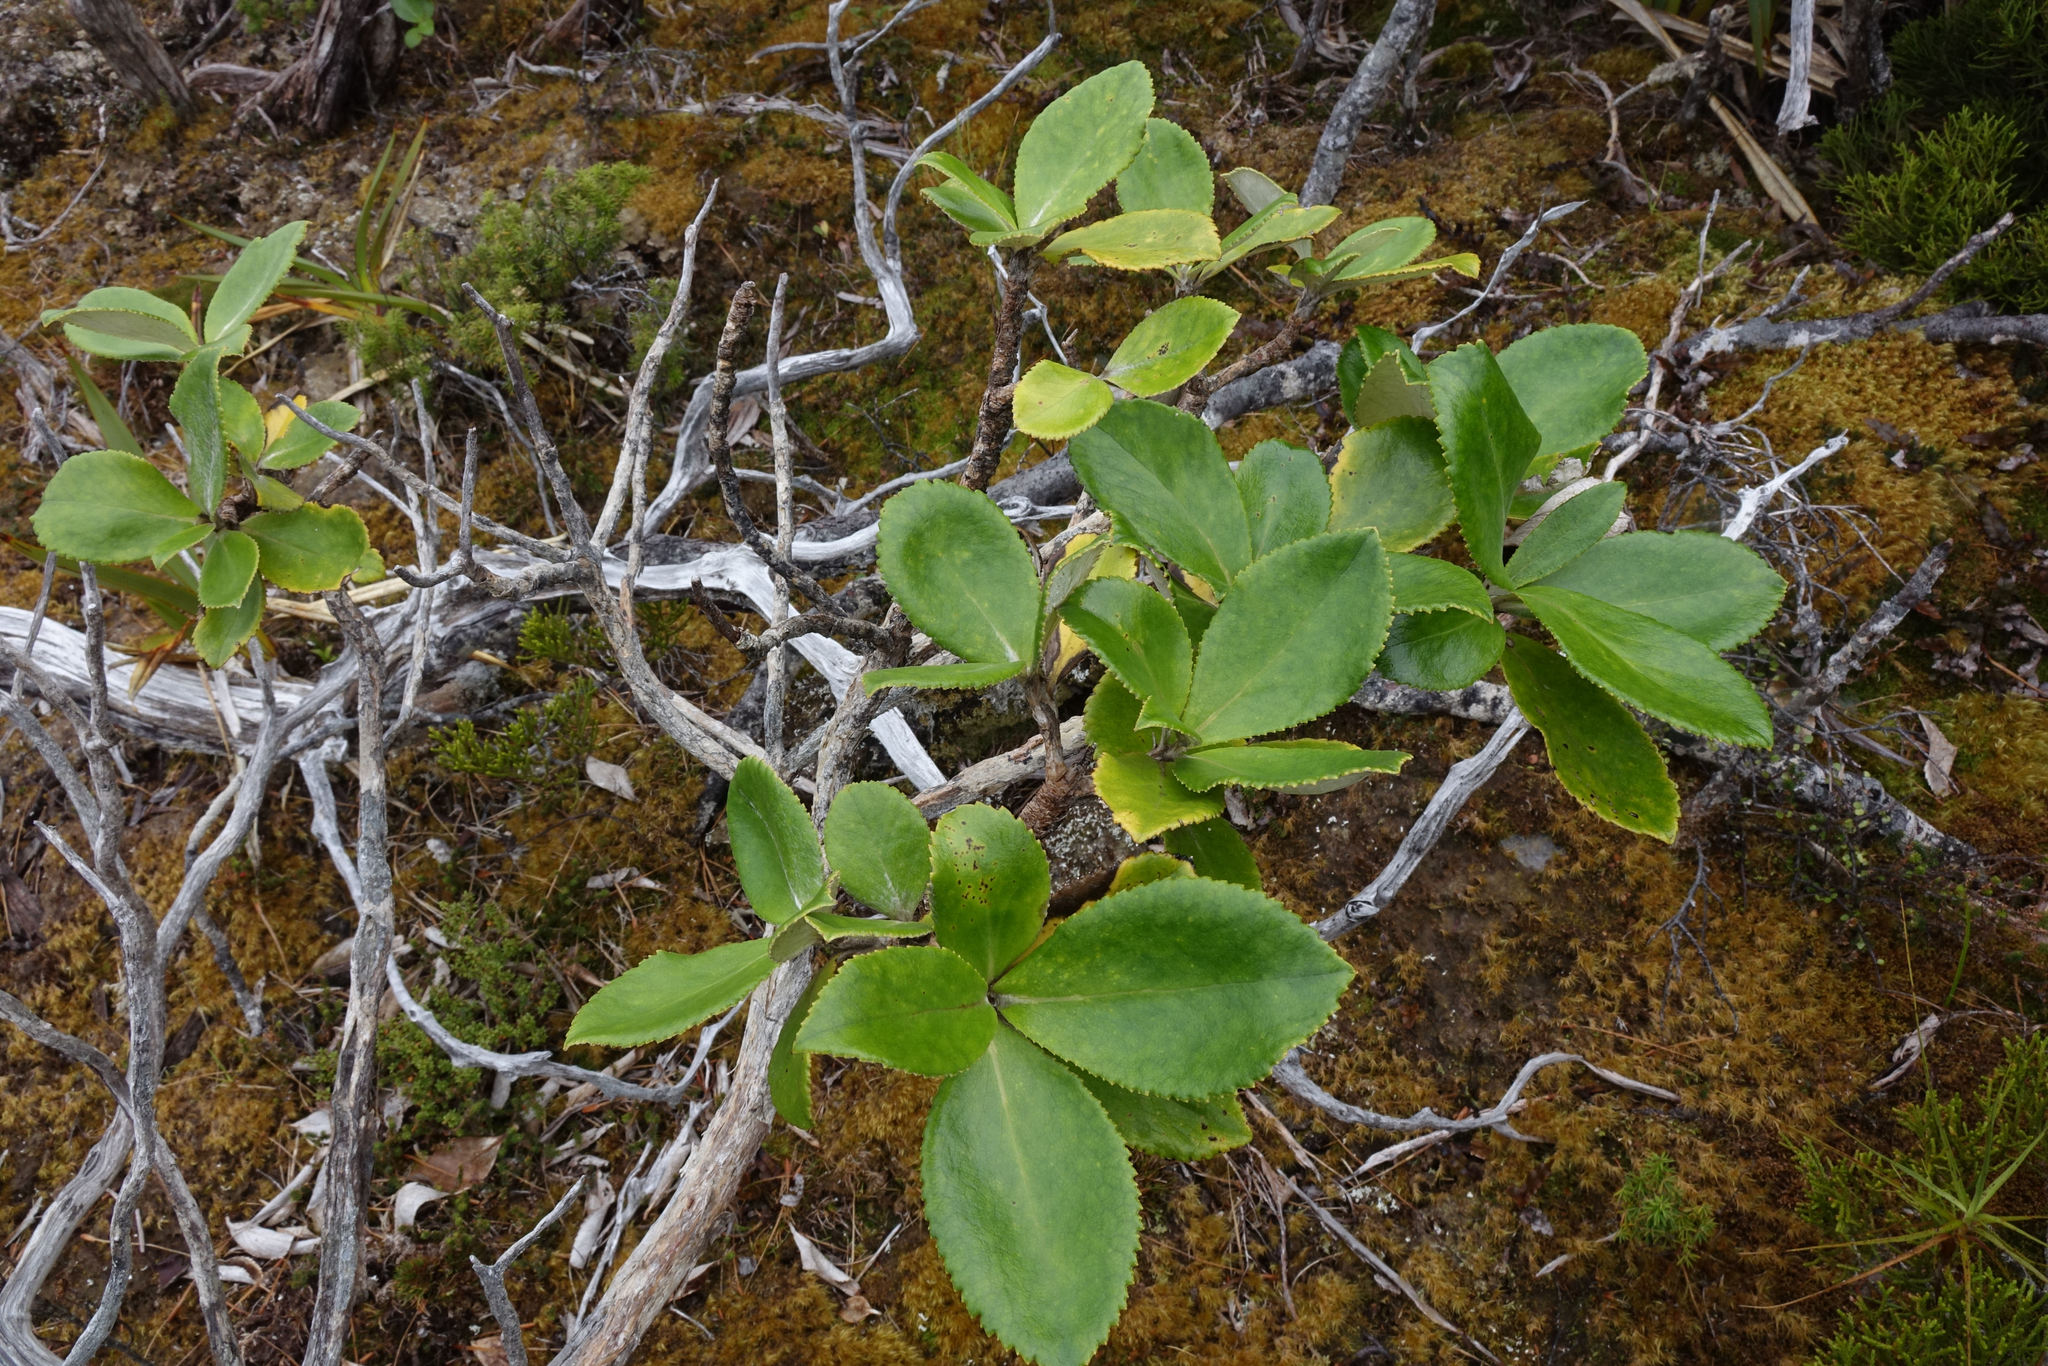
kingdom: Plantae
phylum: Tracheophyta
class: Magnoliopsida
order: Asterales
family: Asteraceae
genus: Macrolearia
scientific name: Macrolearia colensoi
